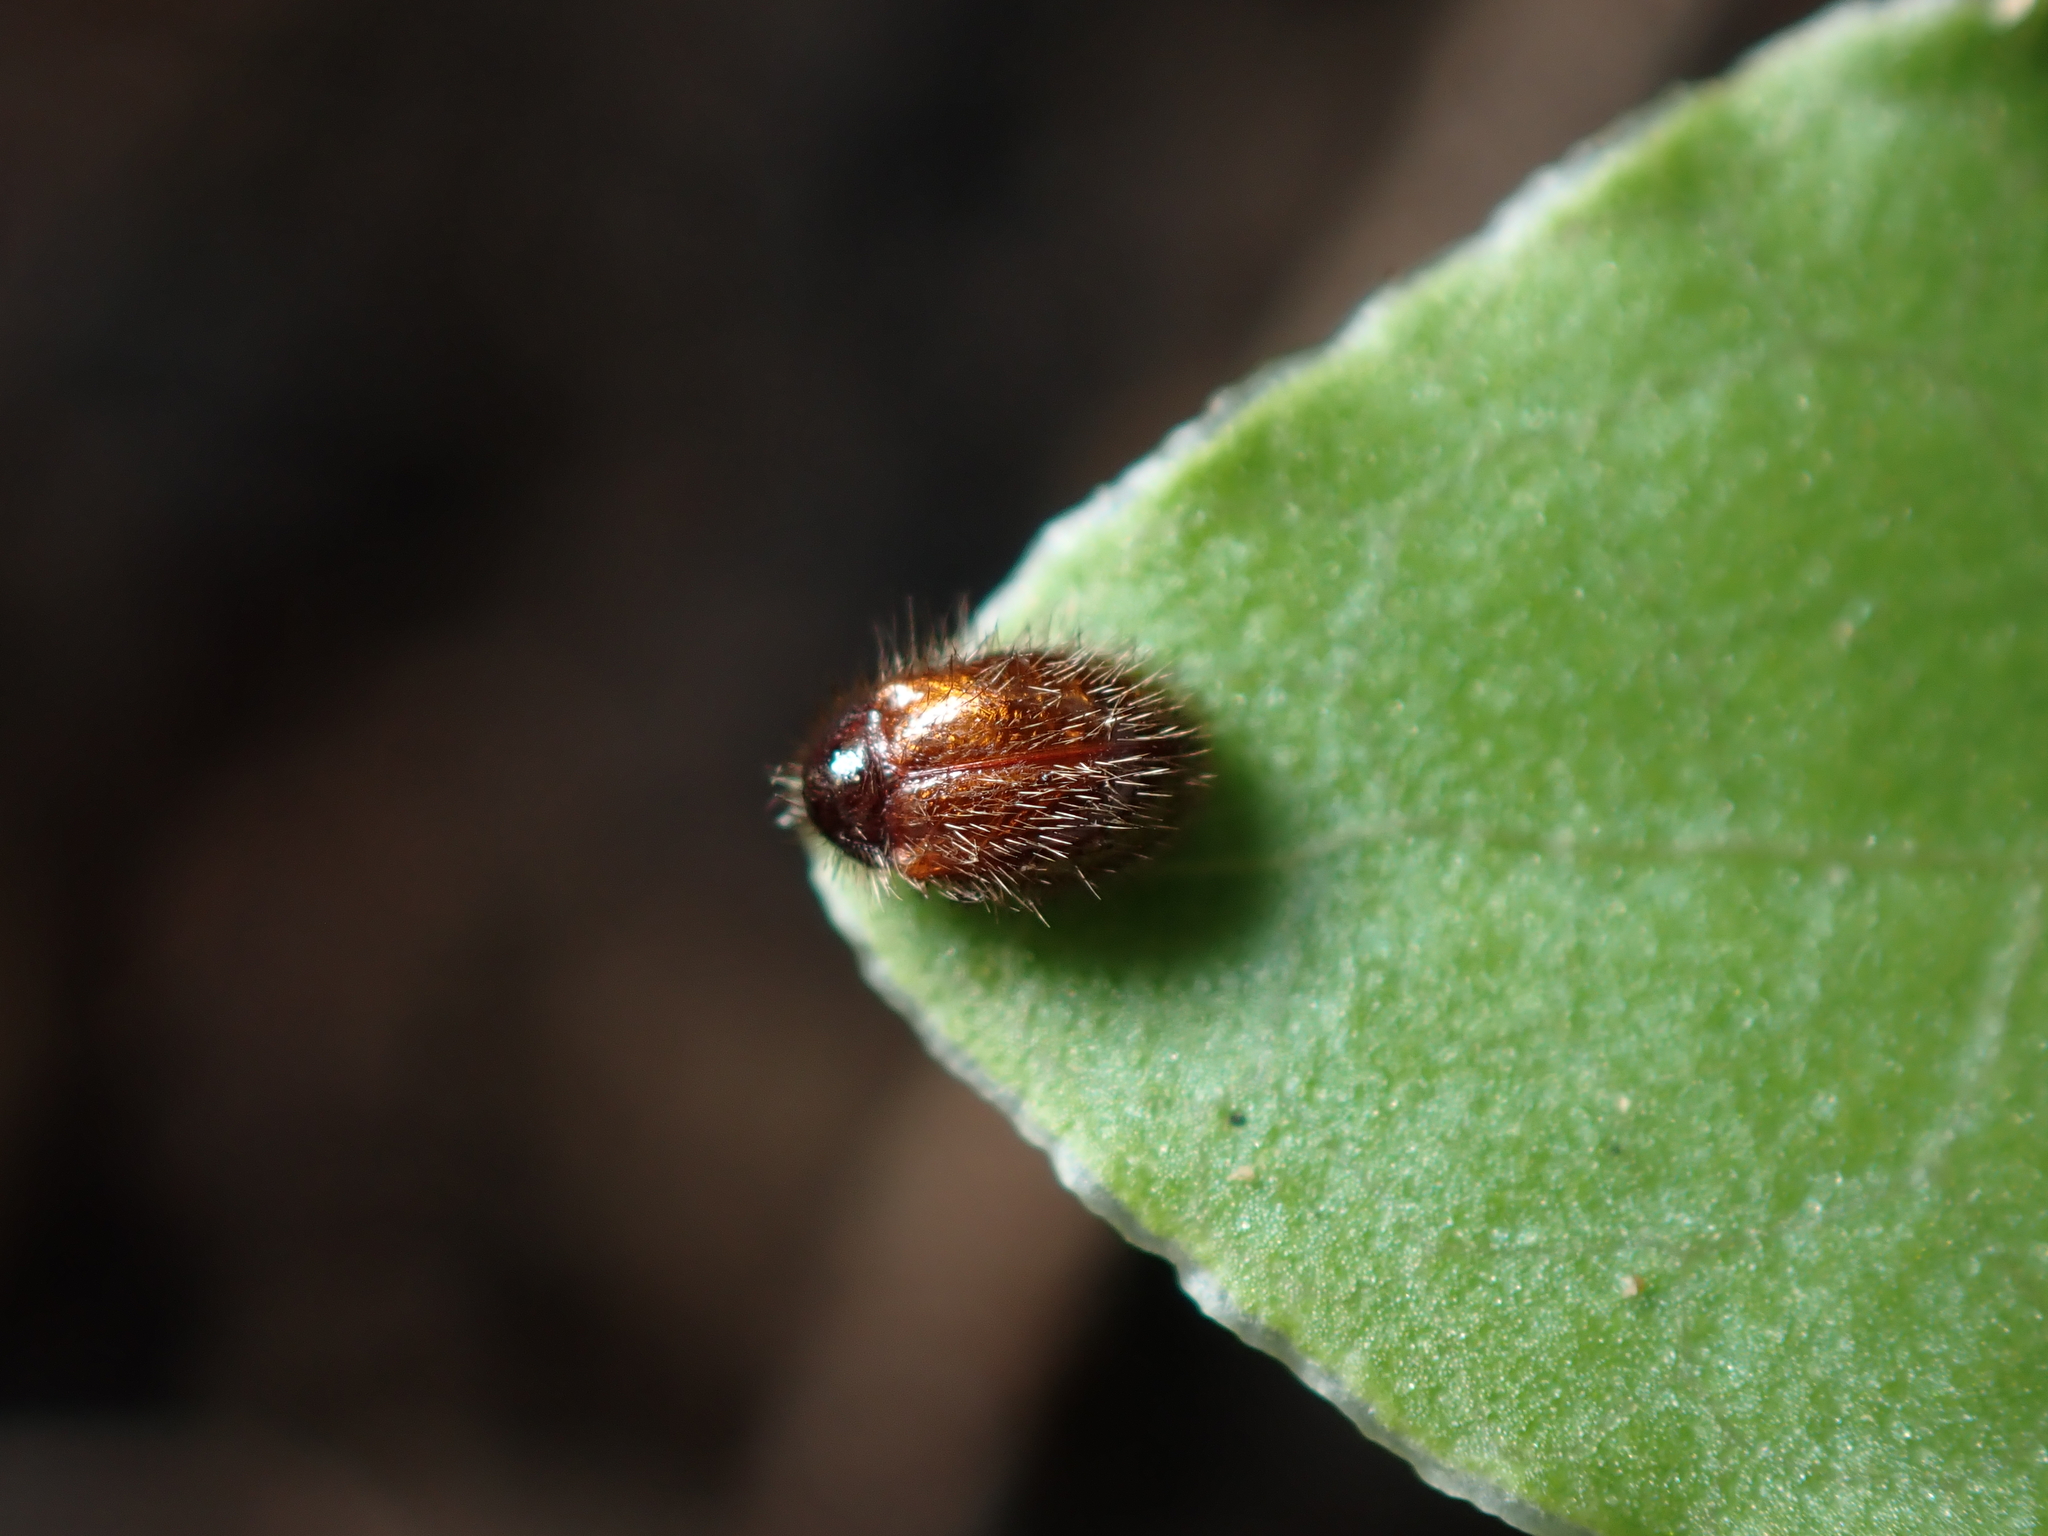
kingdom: Animalia
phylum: Arthropoda
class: Insecta
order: Coleoptera
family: Dermestidae
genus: Hexanodes
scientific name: Hexanodes
